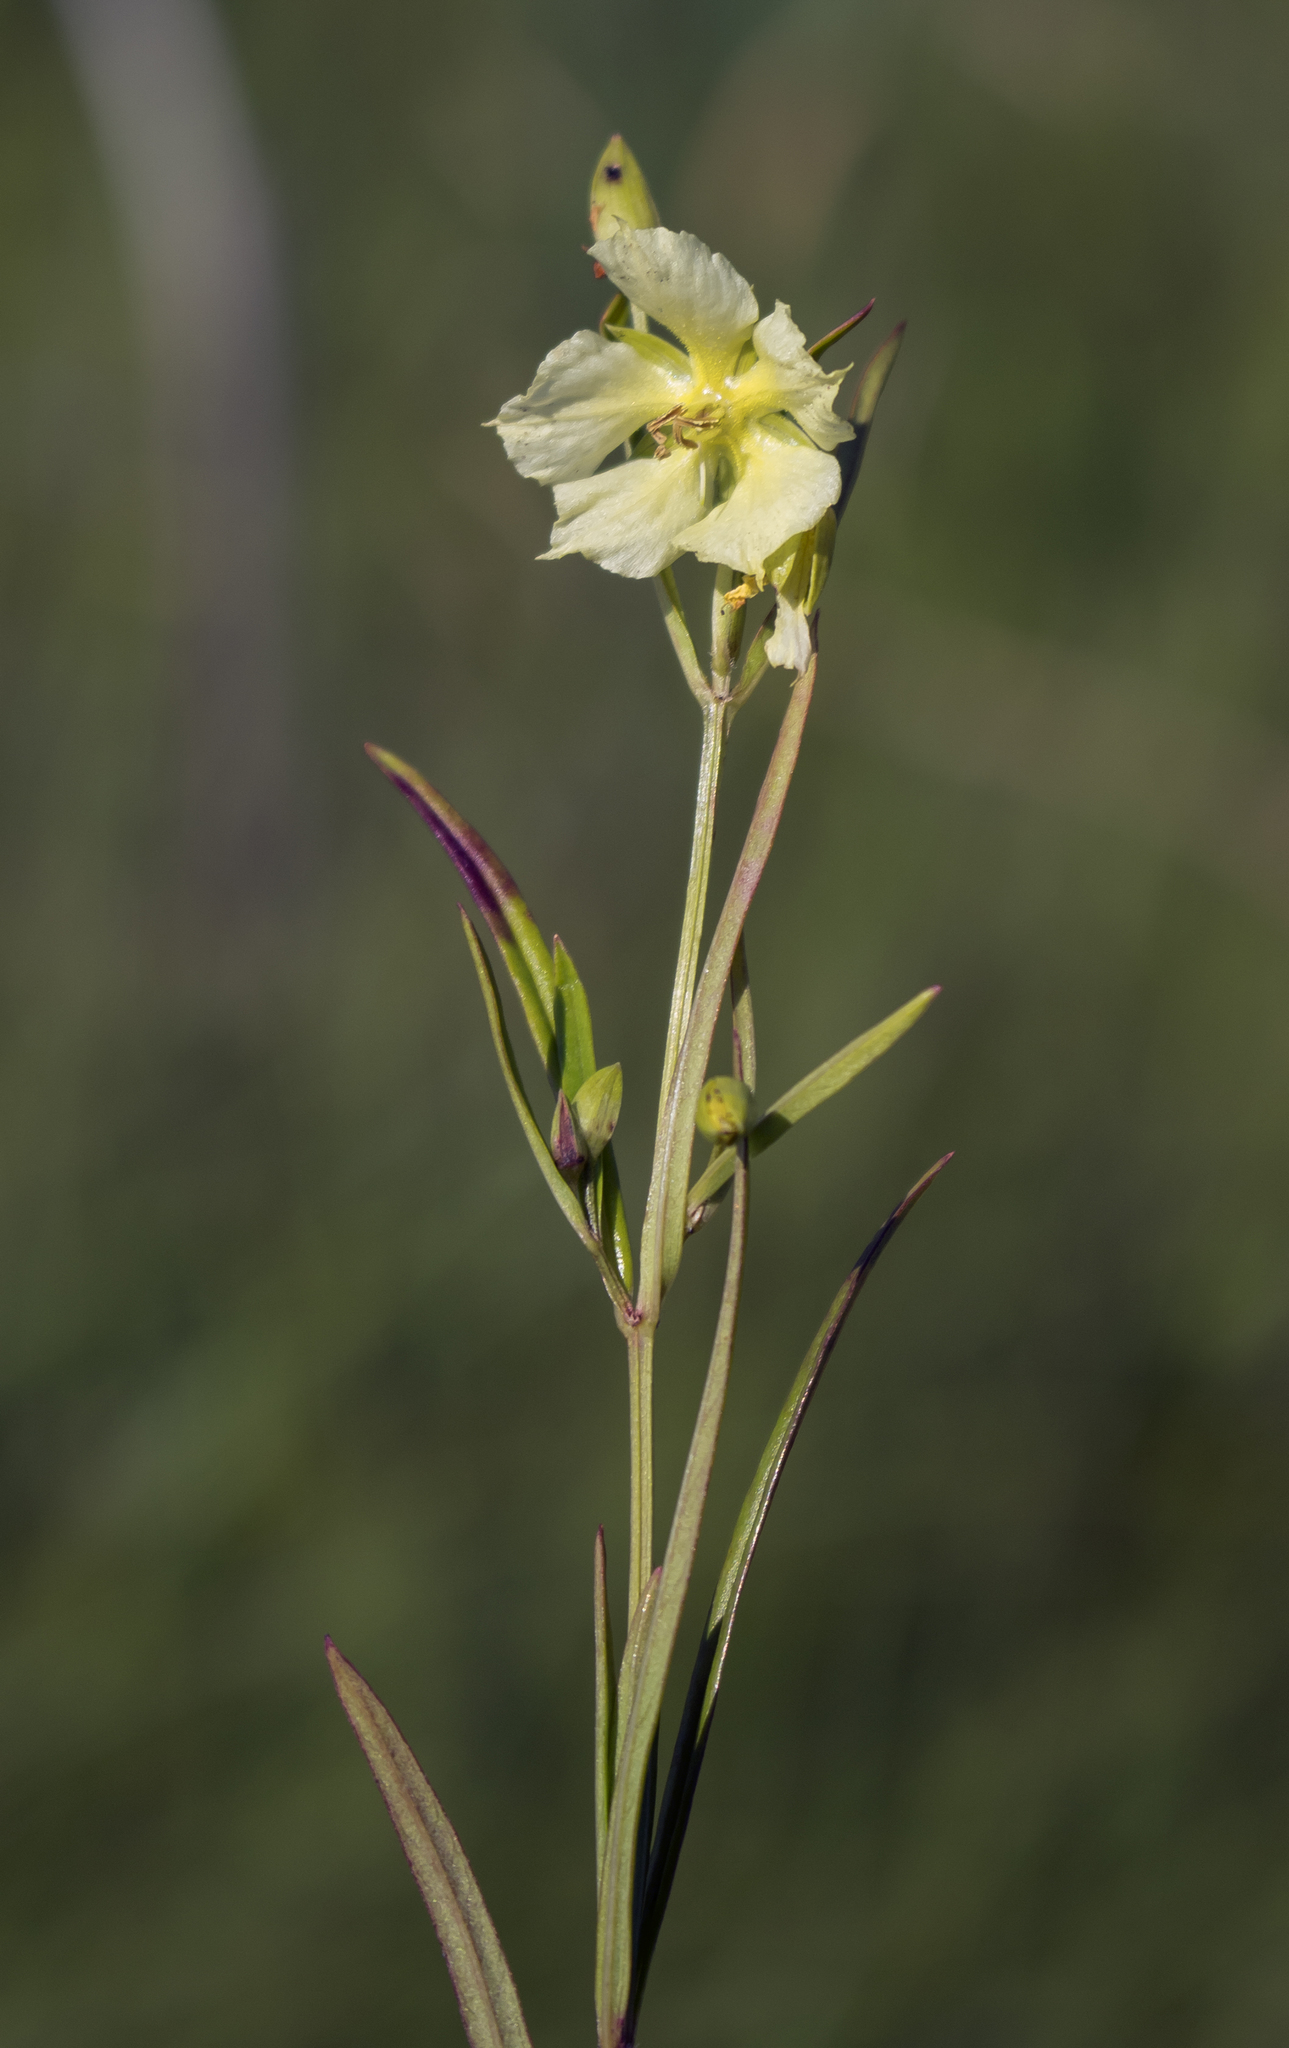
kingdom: Plantae
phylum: Tracheophyta
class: Magnoliopsida
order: Ericales
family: Primulaceae
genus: Lysimachia
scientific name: Lysimachia quadriflora
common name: Four-flowered loosestrife
